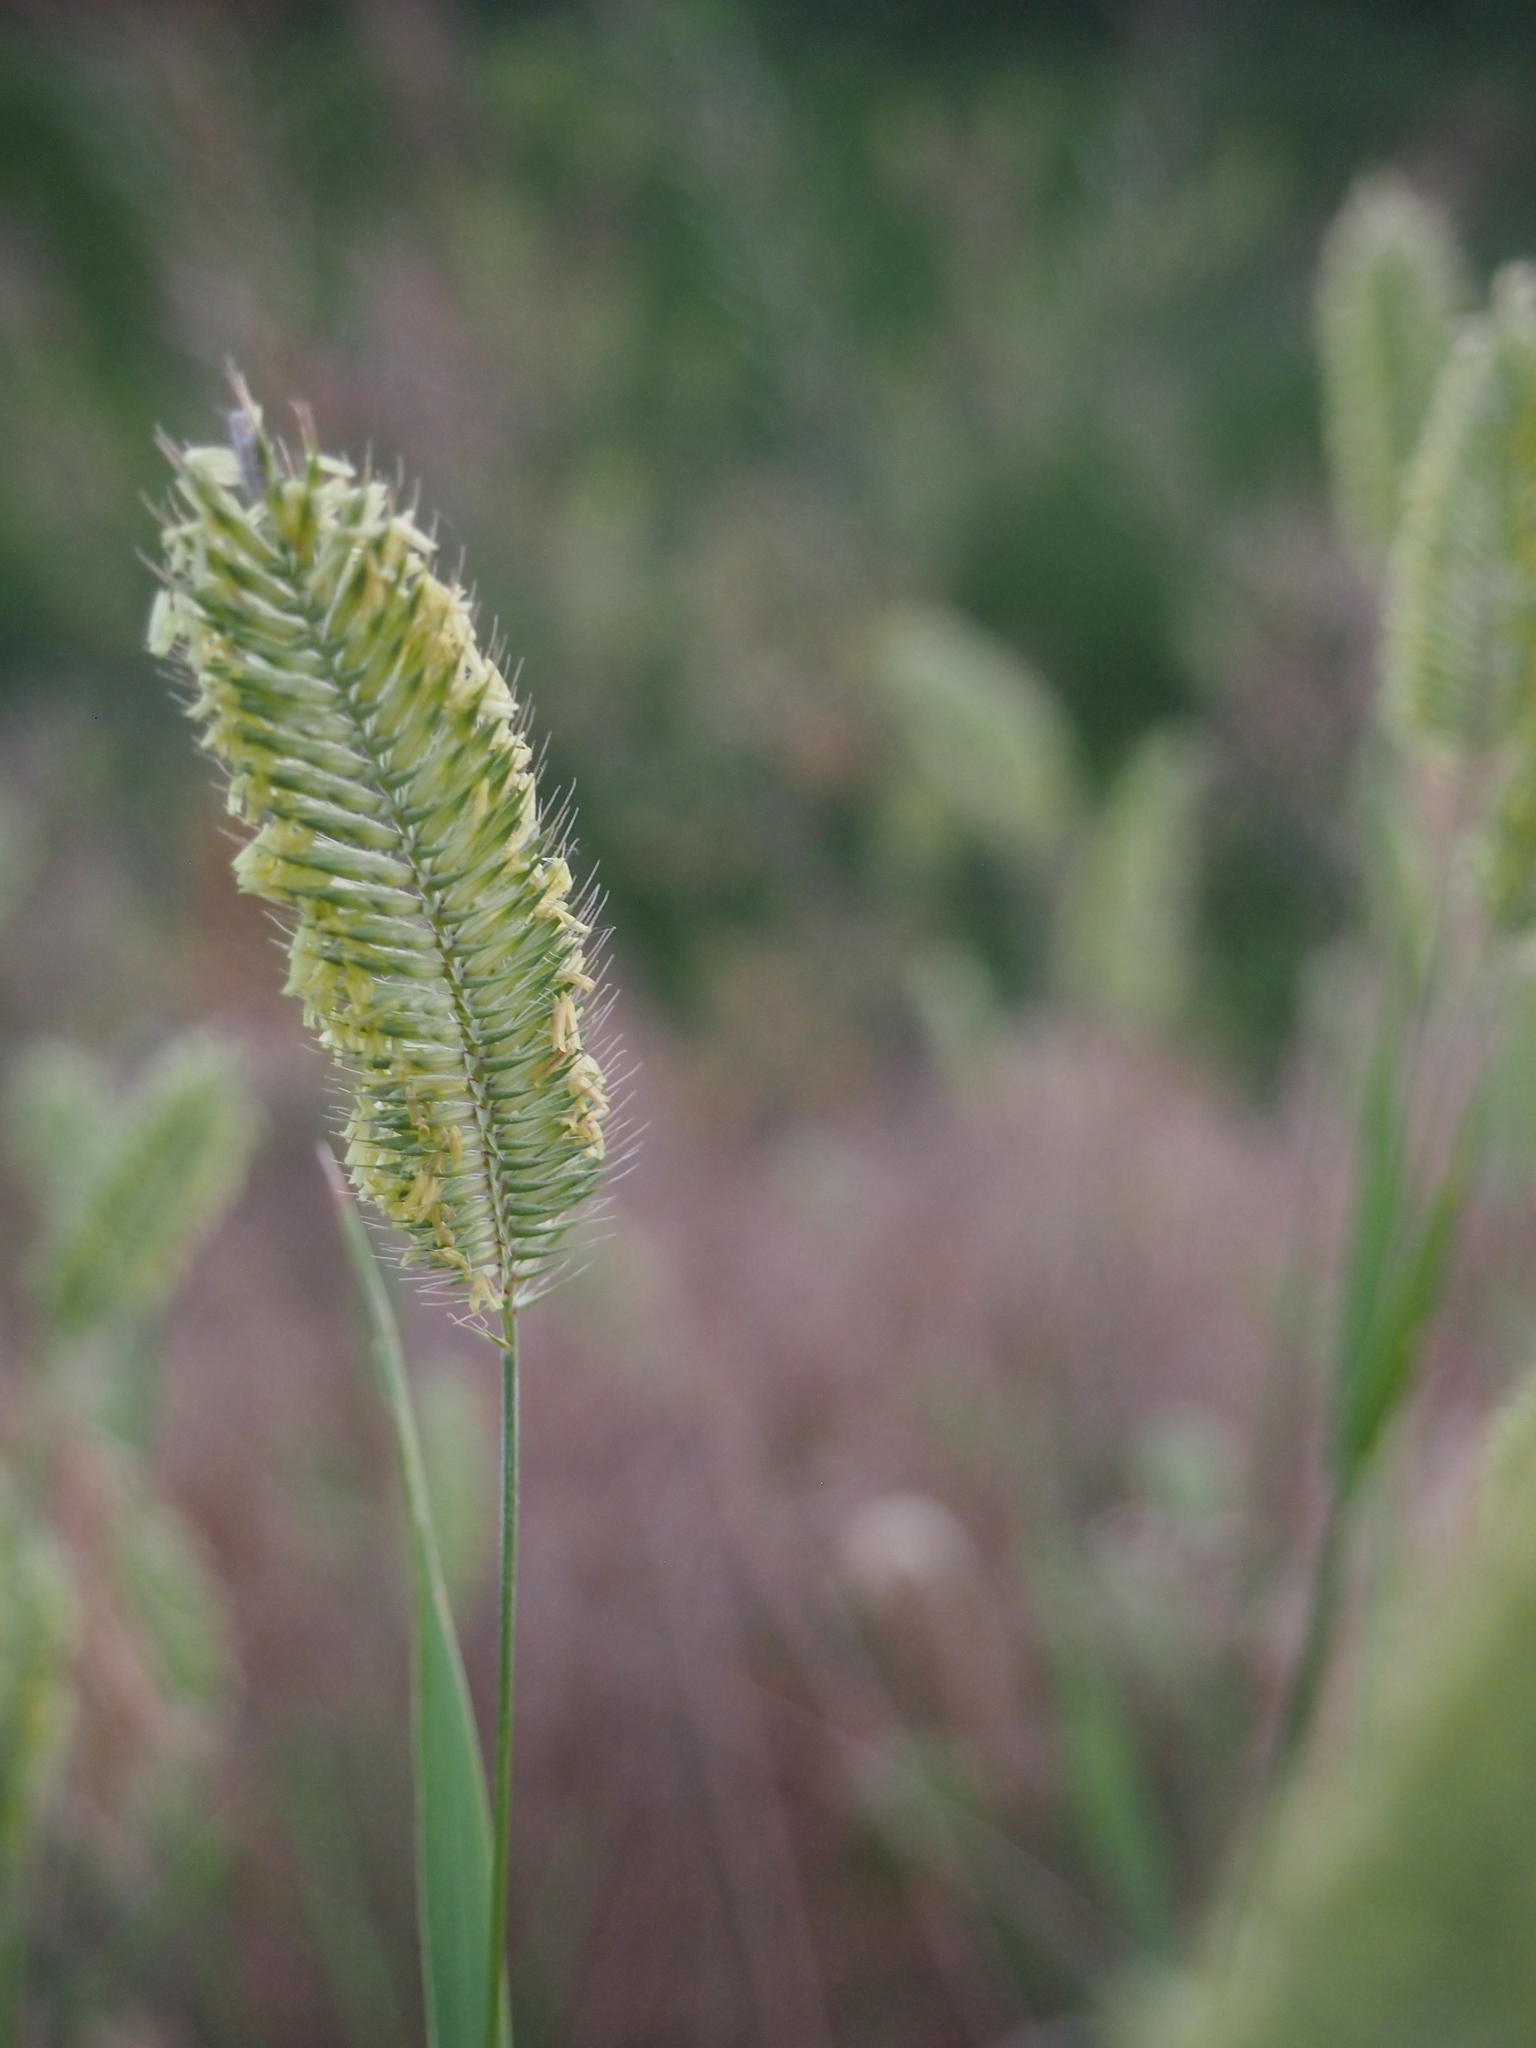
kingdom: Plantae
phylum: Tracheophyta
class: Liliopsida
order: Poales
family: Poaceae
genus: Agropyron
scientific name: Agropyron cristatum
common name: Crested wheatgrass
